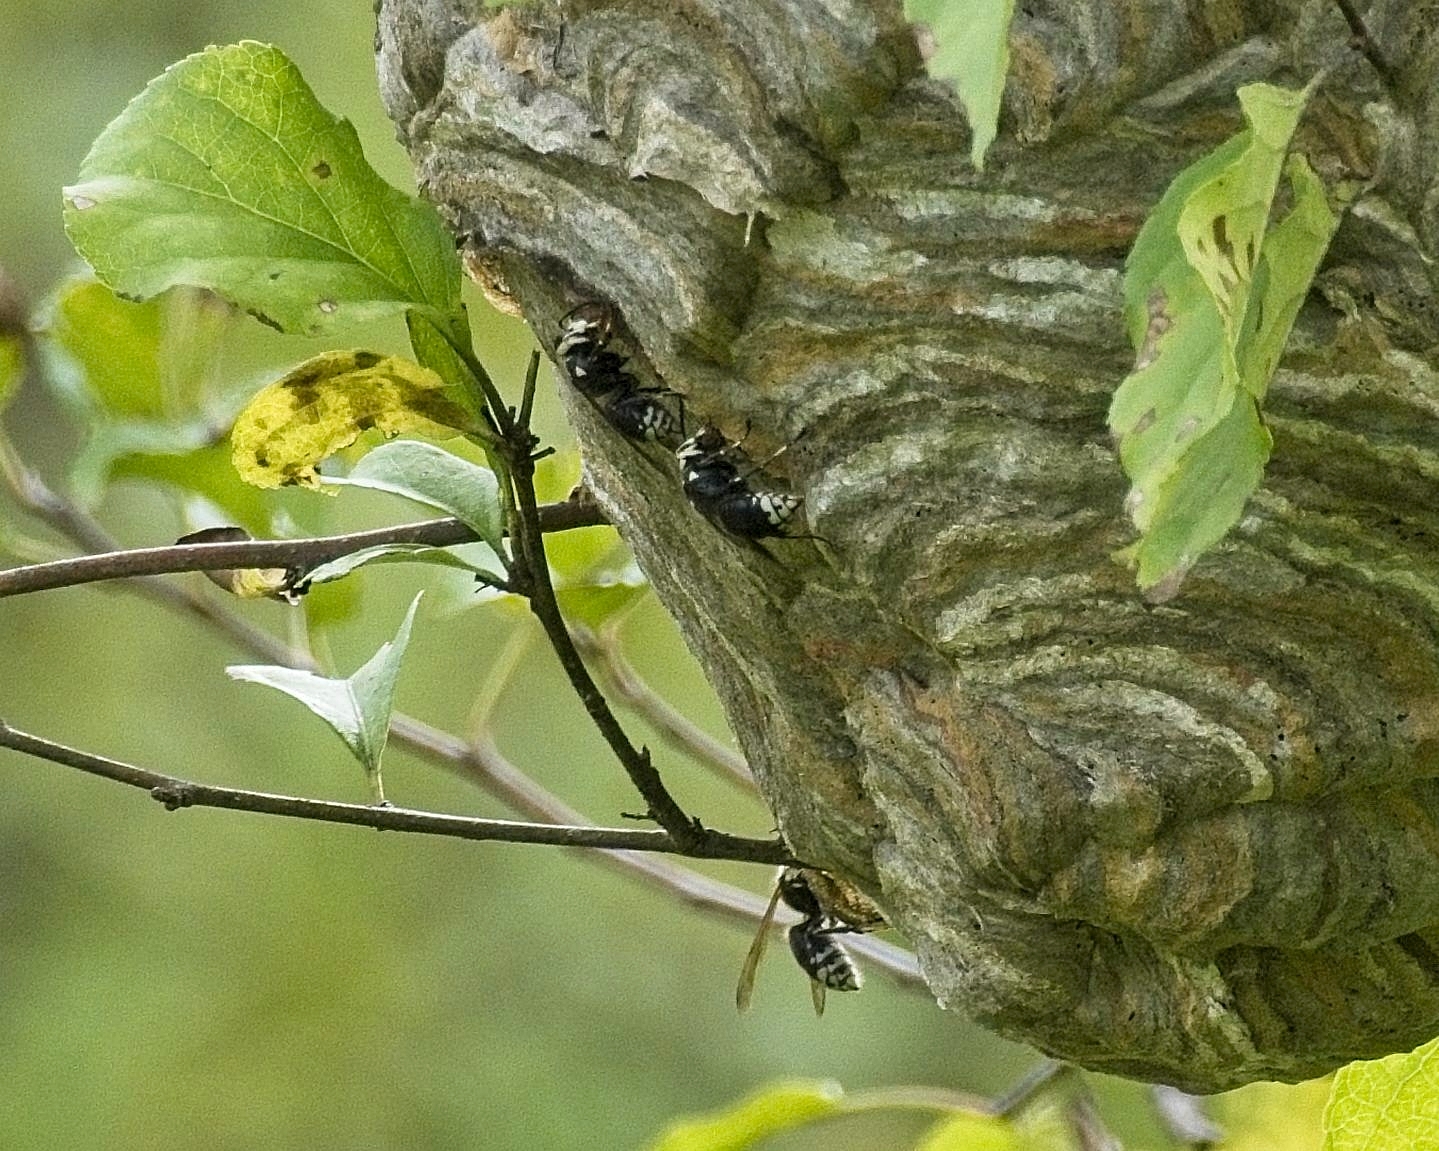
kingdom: Animalia
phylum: Arthropoda
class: Insecta
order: Hymenoptera
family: Vespidae
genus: Dolichovespula
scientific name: Dolichovespula maculata
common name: Bald-faced hornet
